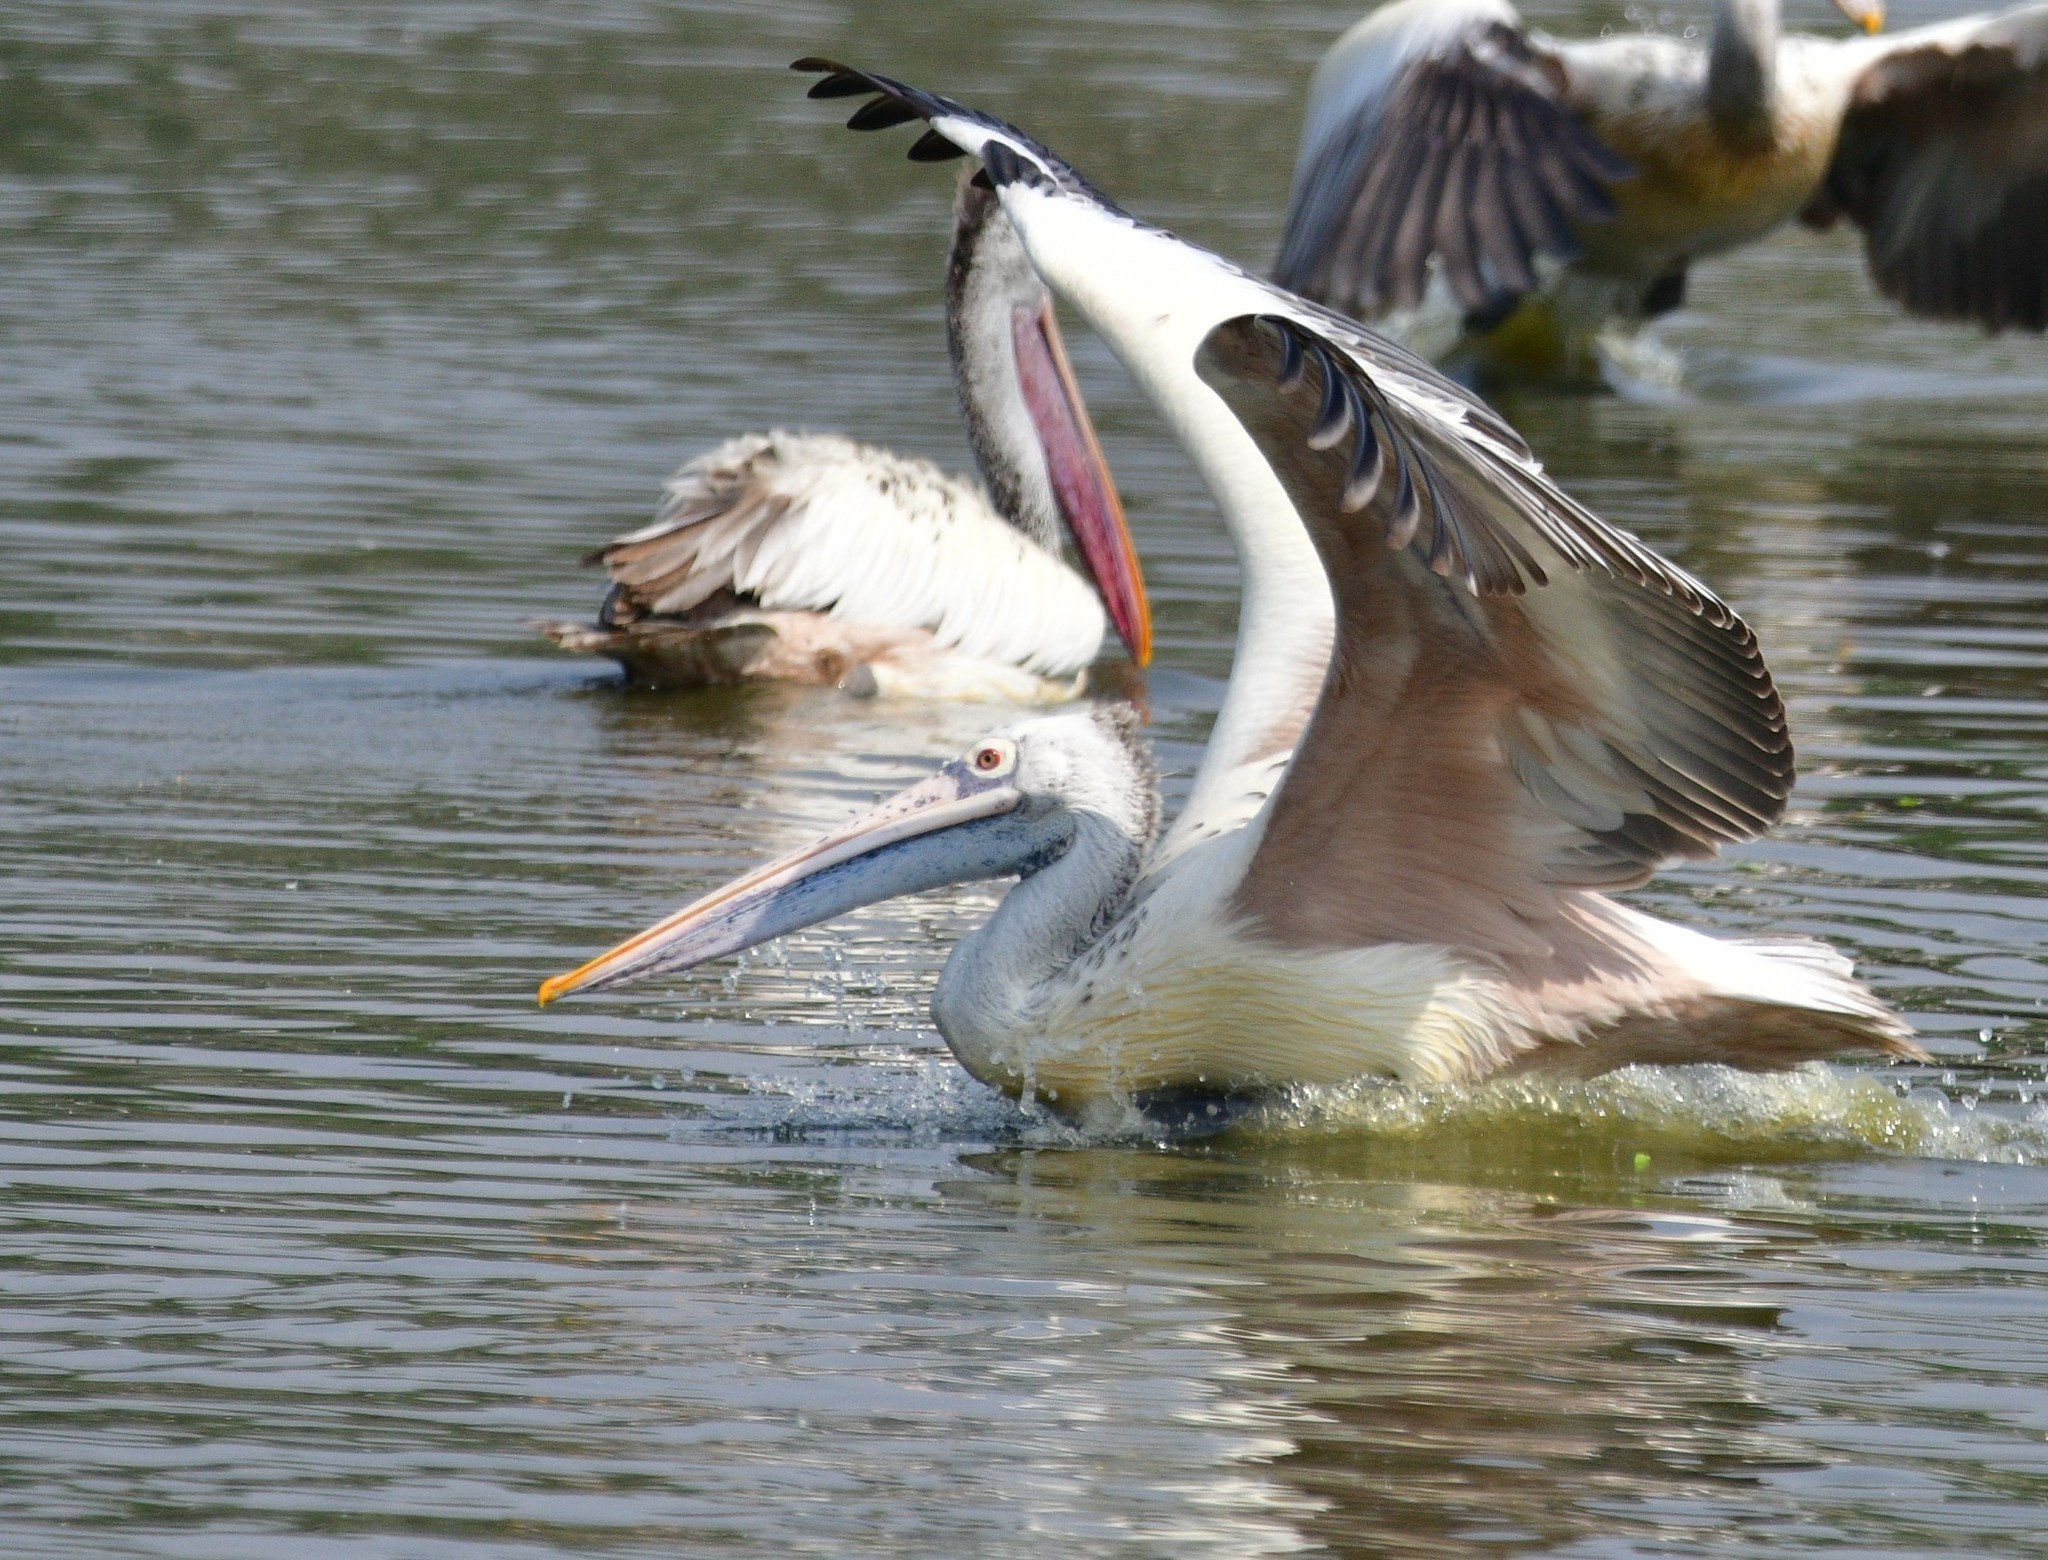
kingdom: Animalia
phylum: Chordata
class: Aves
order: Pelecaniformes
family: Pelecanidae
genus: Pelecanus
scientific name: Pelecanus philippensis
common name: Spot-billed pelican
